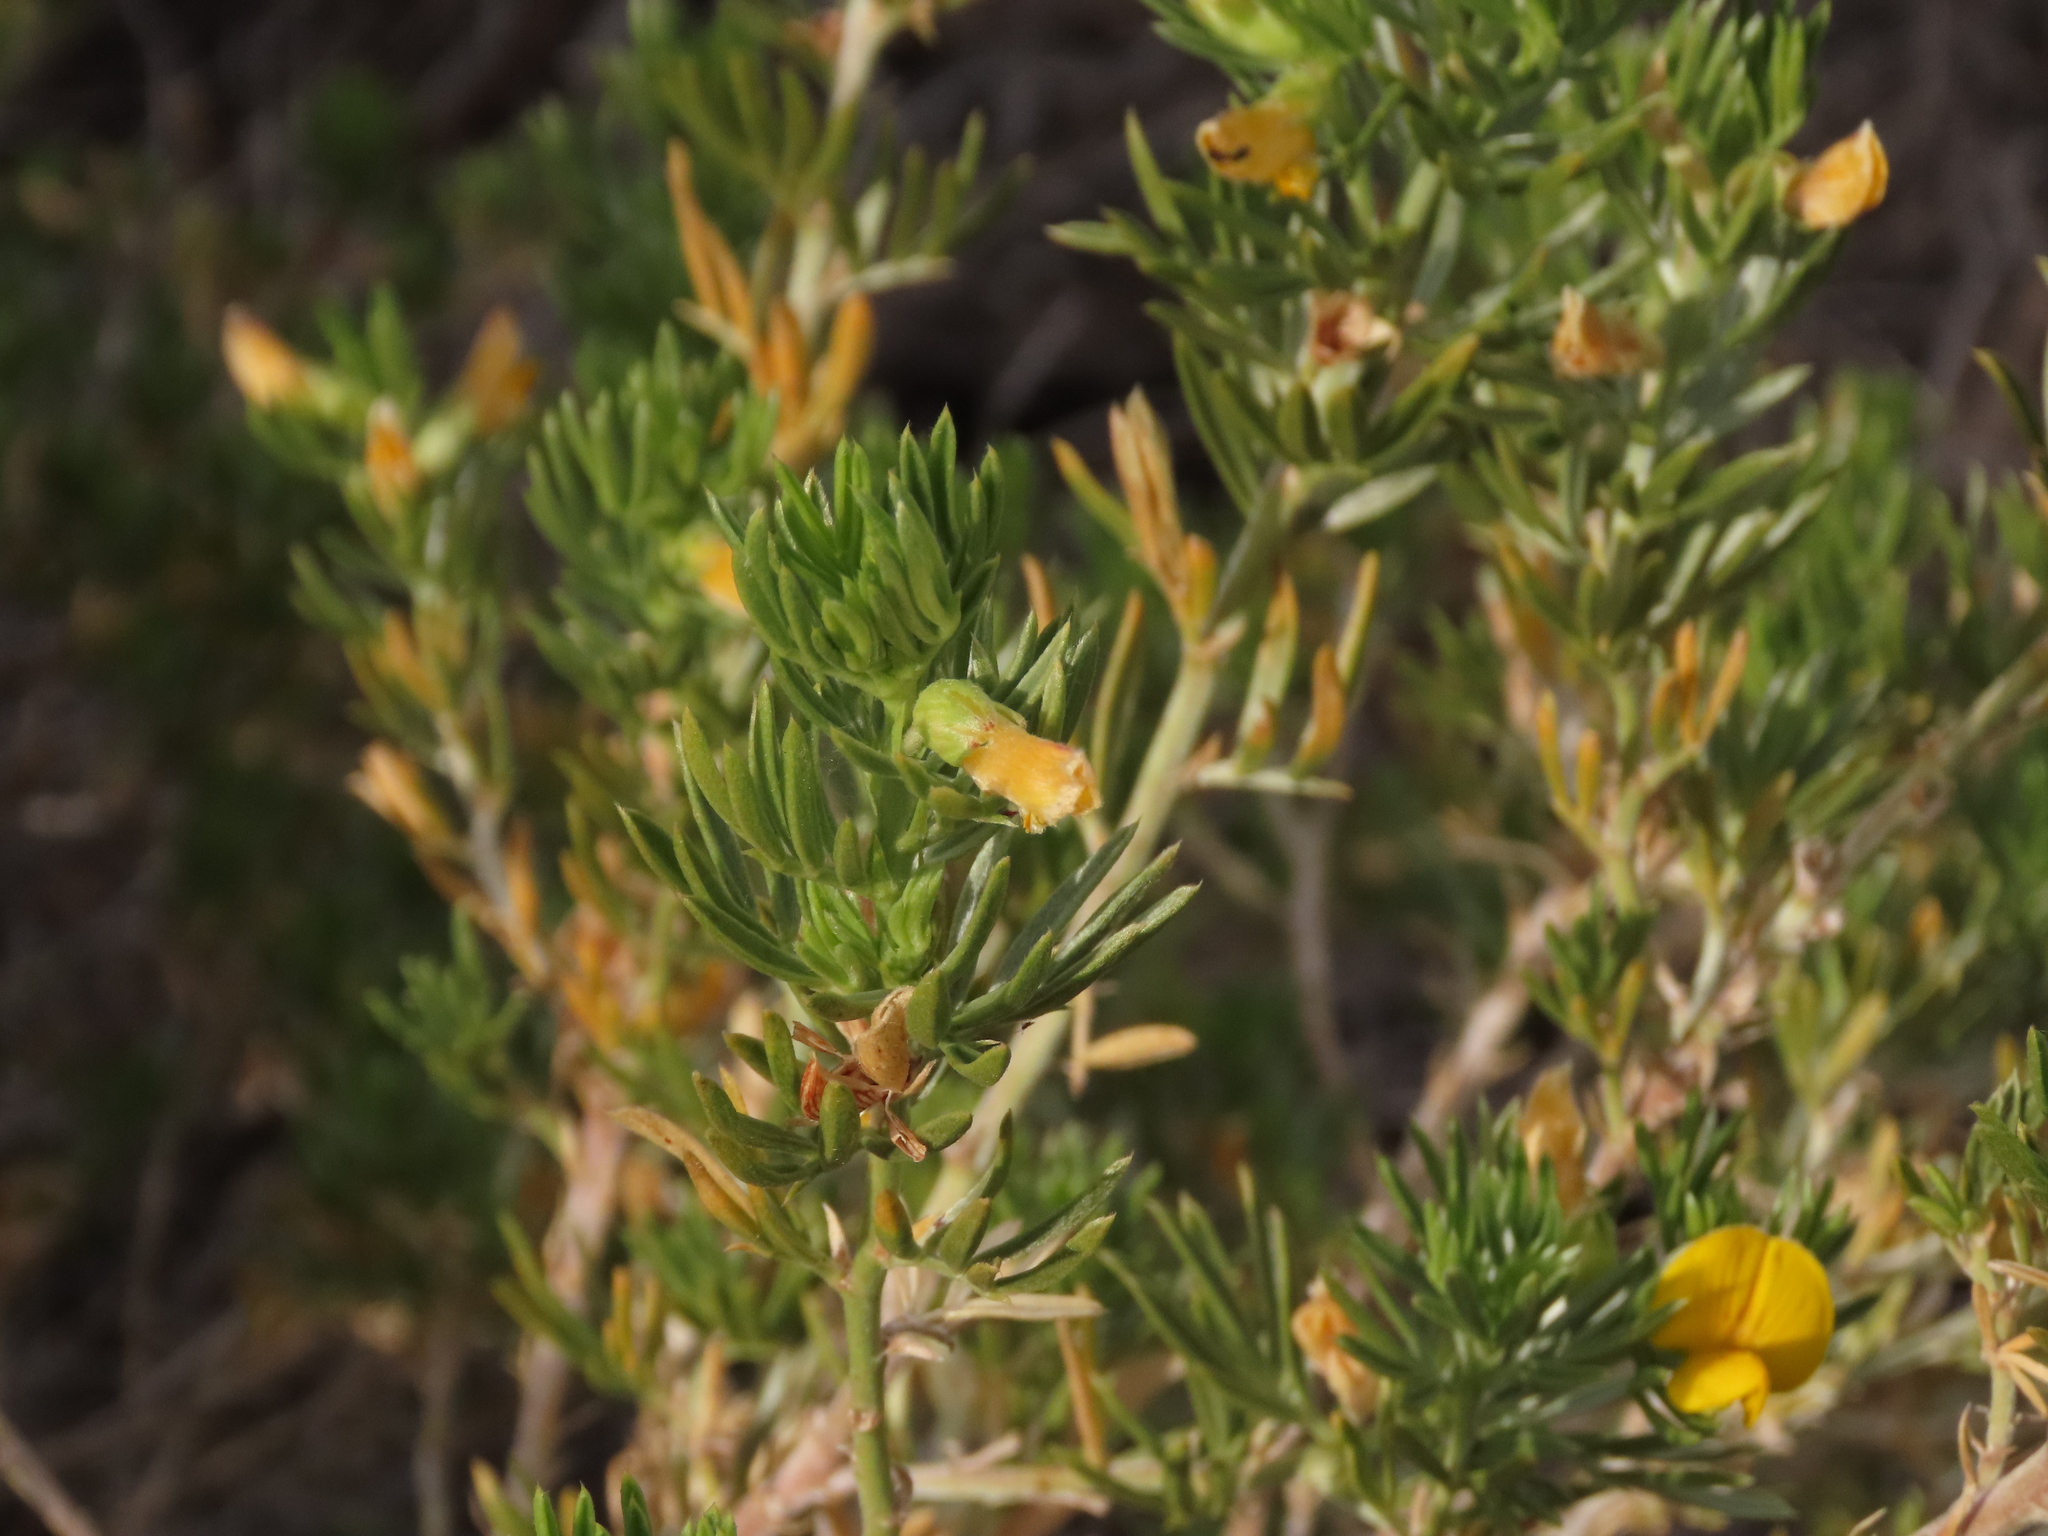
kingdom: Plantae
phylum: Tracheophyta
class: Magnoliopsida
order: Fabales
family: Fabaceae
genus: Adesmia
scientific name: Adesmia loudonia
